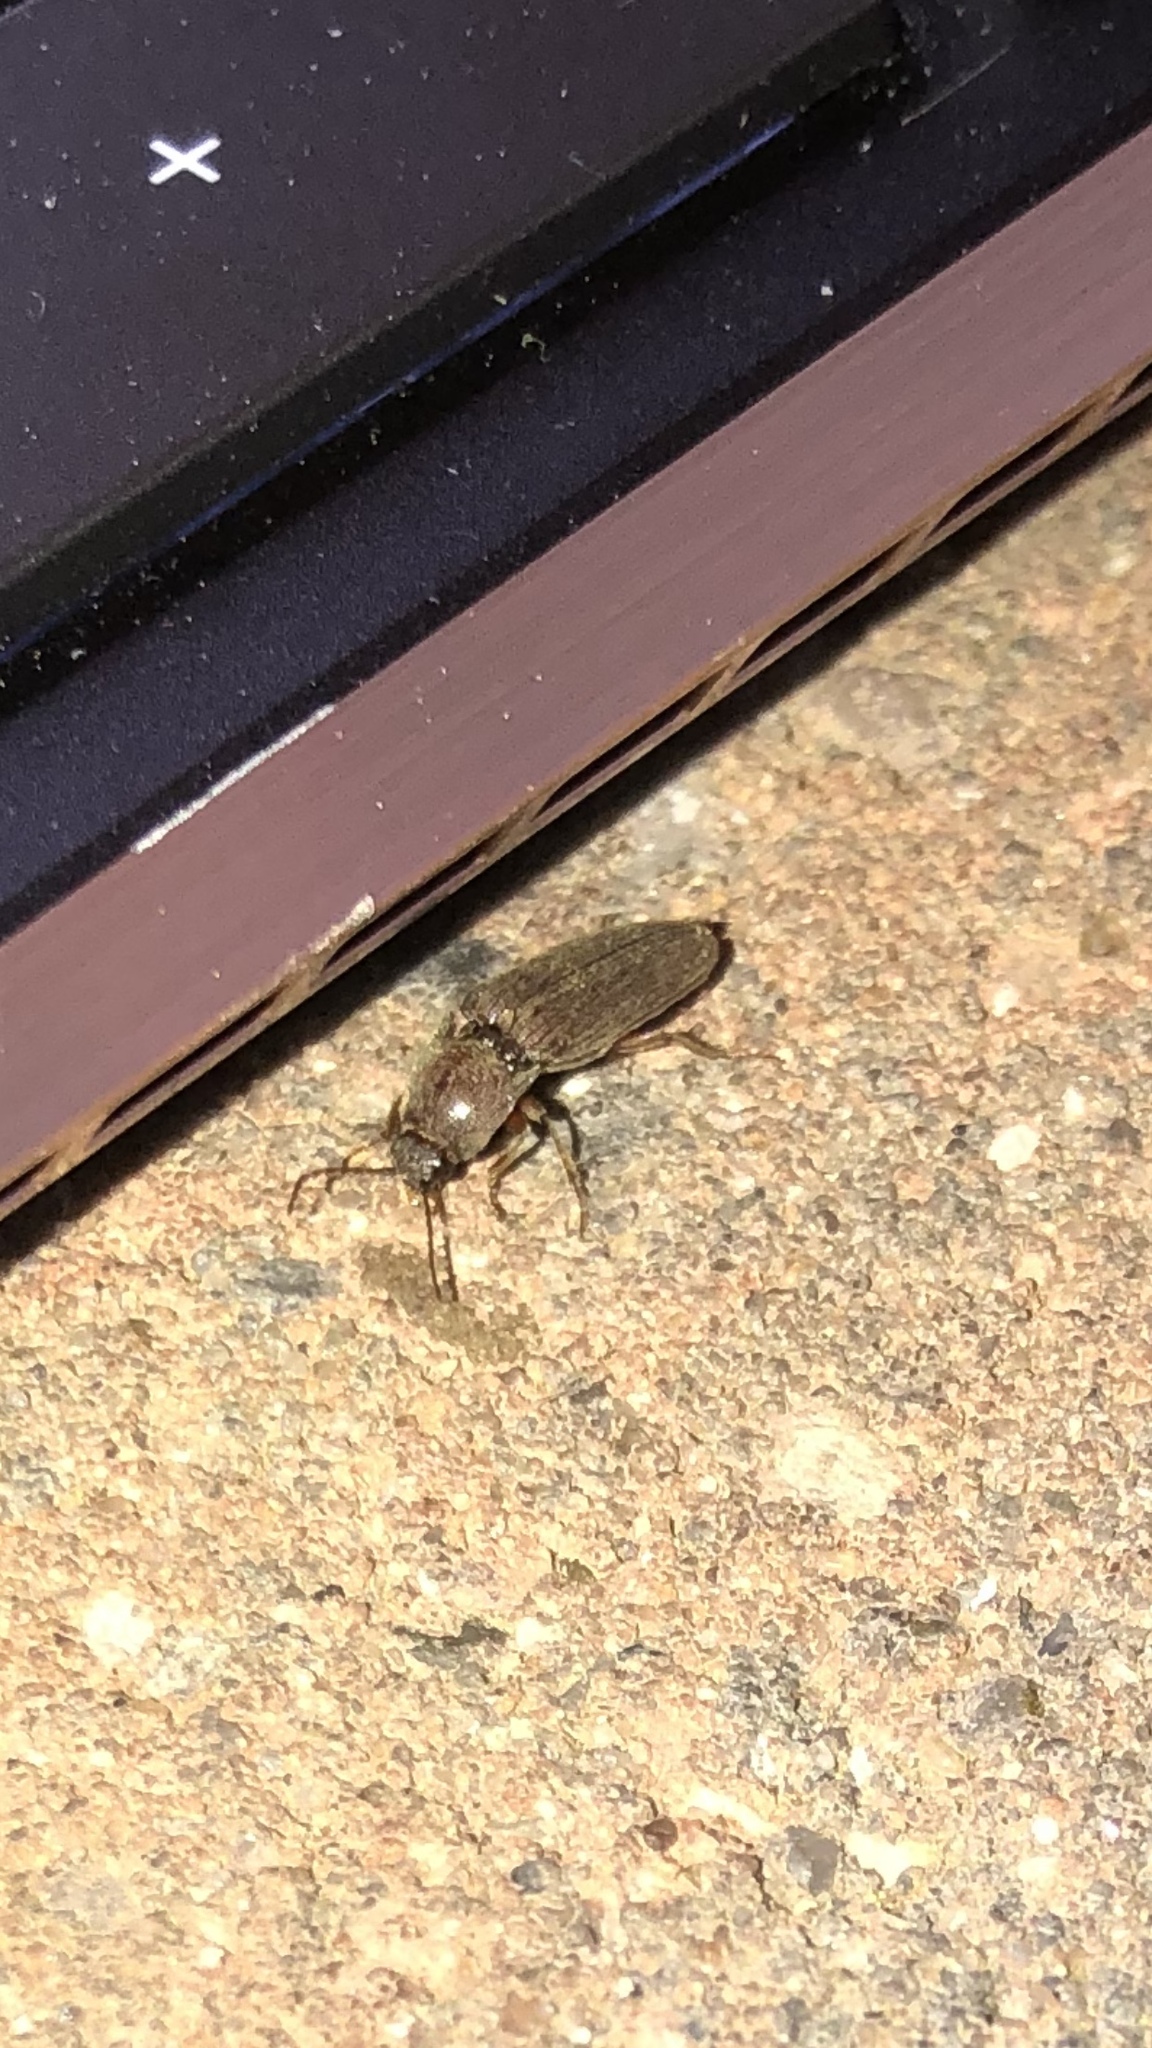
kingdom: Animalia
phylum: Arthropoda
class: Insecta
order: Coleoptera
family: Elateridae
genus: Melanotus
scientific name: Melanotus
